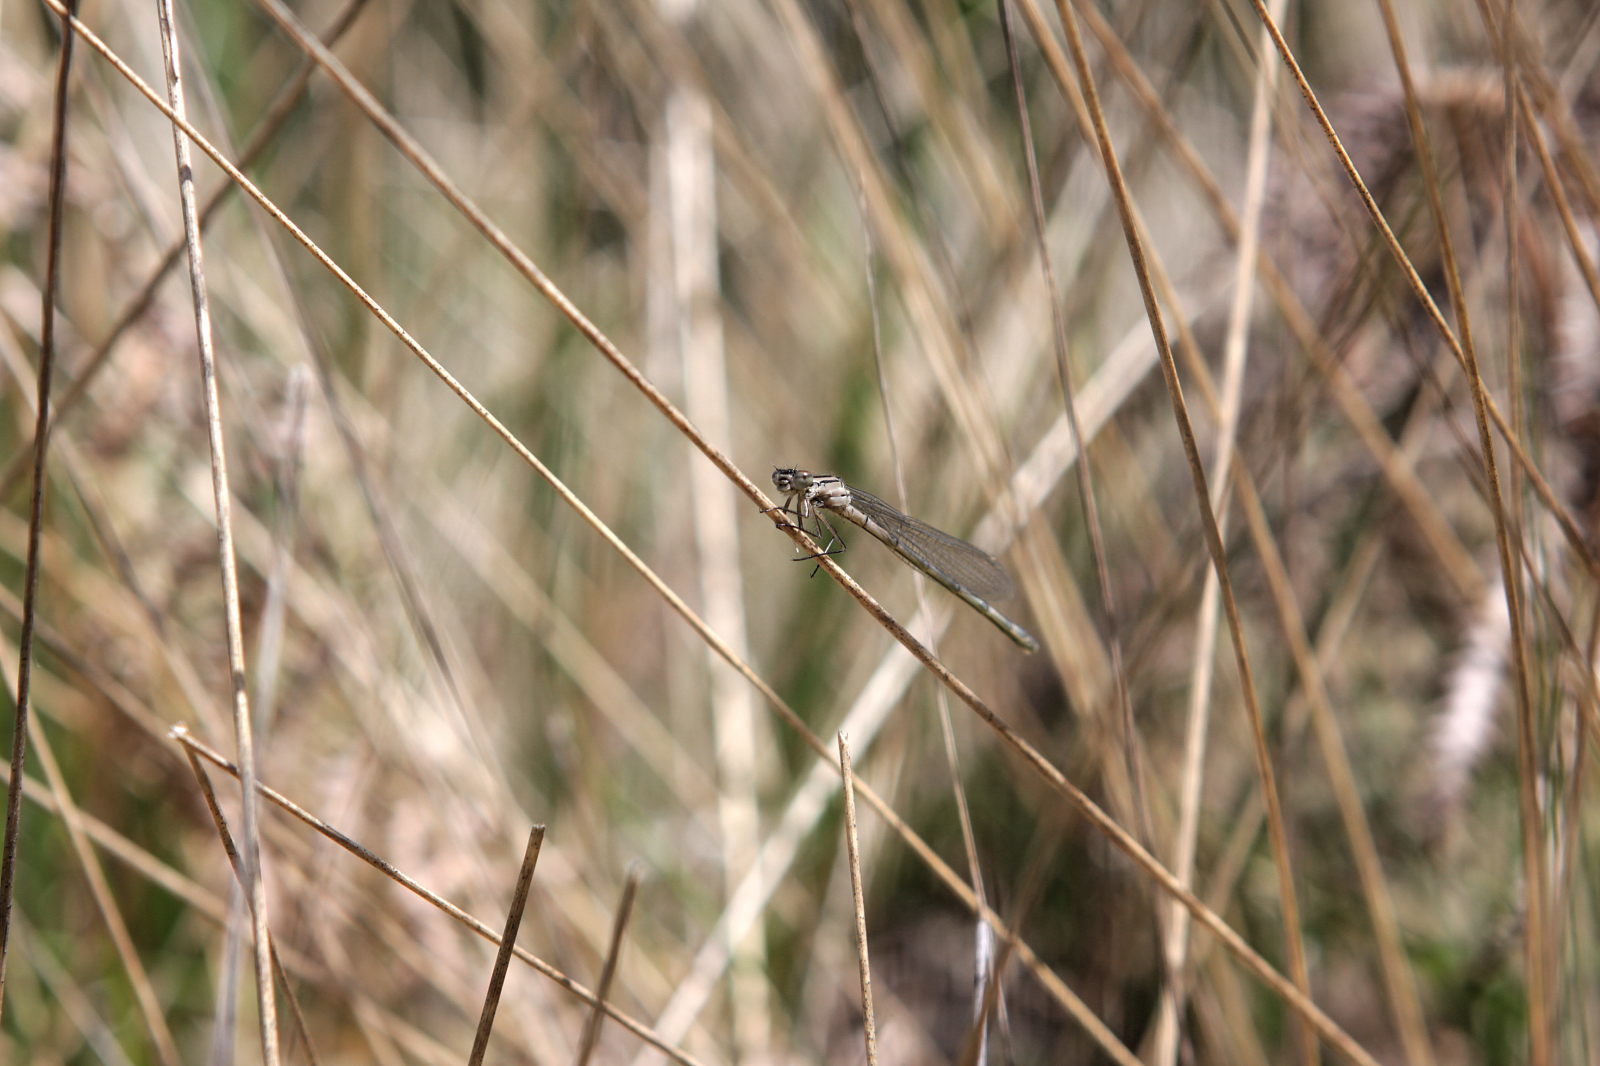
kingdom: Animalia
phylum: Arthropoda
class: Insecta
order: Odonata
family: Coenagrionidae
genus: Enallagma
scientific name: Enallagma cyathigerum
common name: Common blue damselfly
